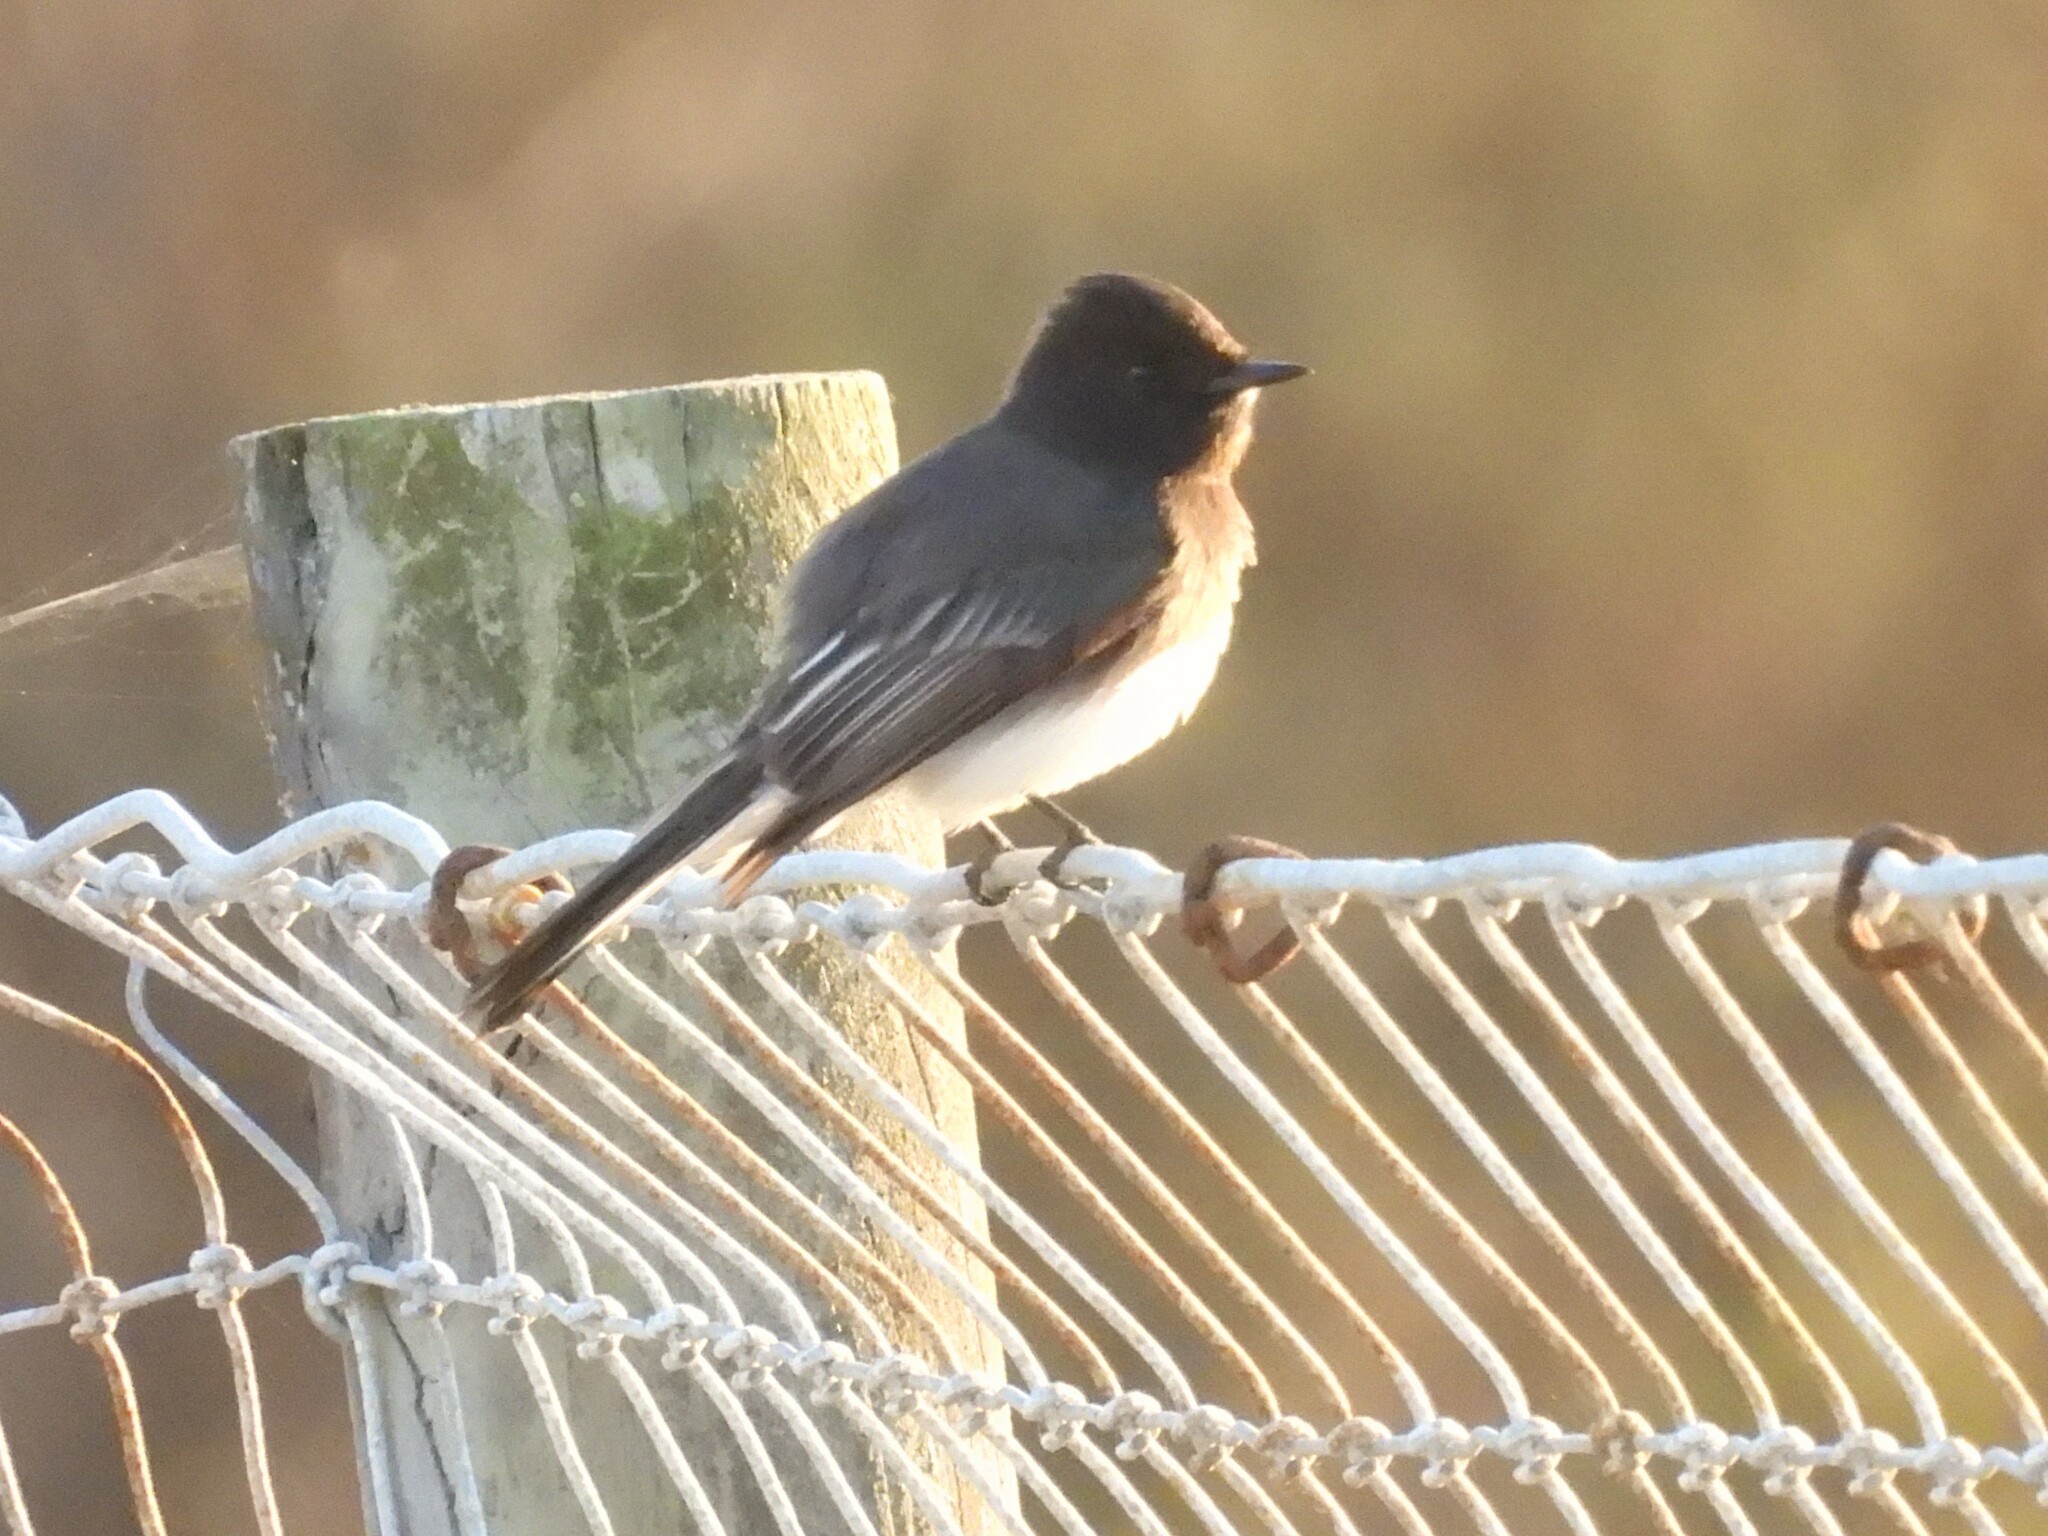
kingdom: Animalia
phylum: Chordata
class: Aves
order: Passeriformes
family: Tyrannidae
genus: Sayornis
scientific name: Sayornis nigricans
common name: Black phoebe
